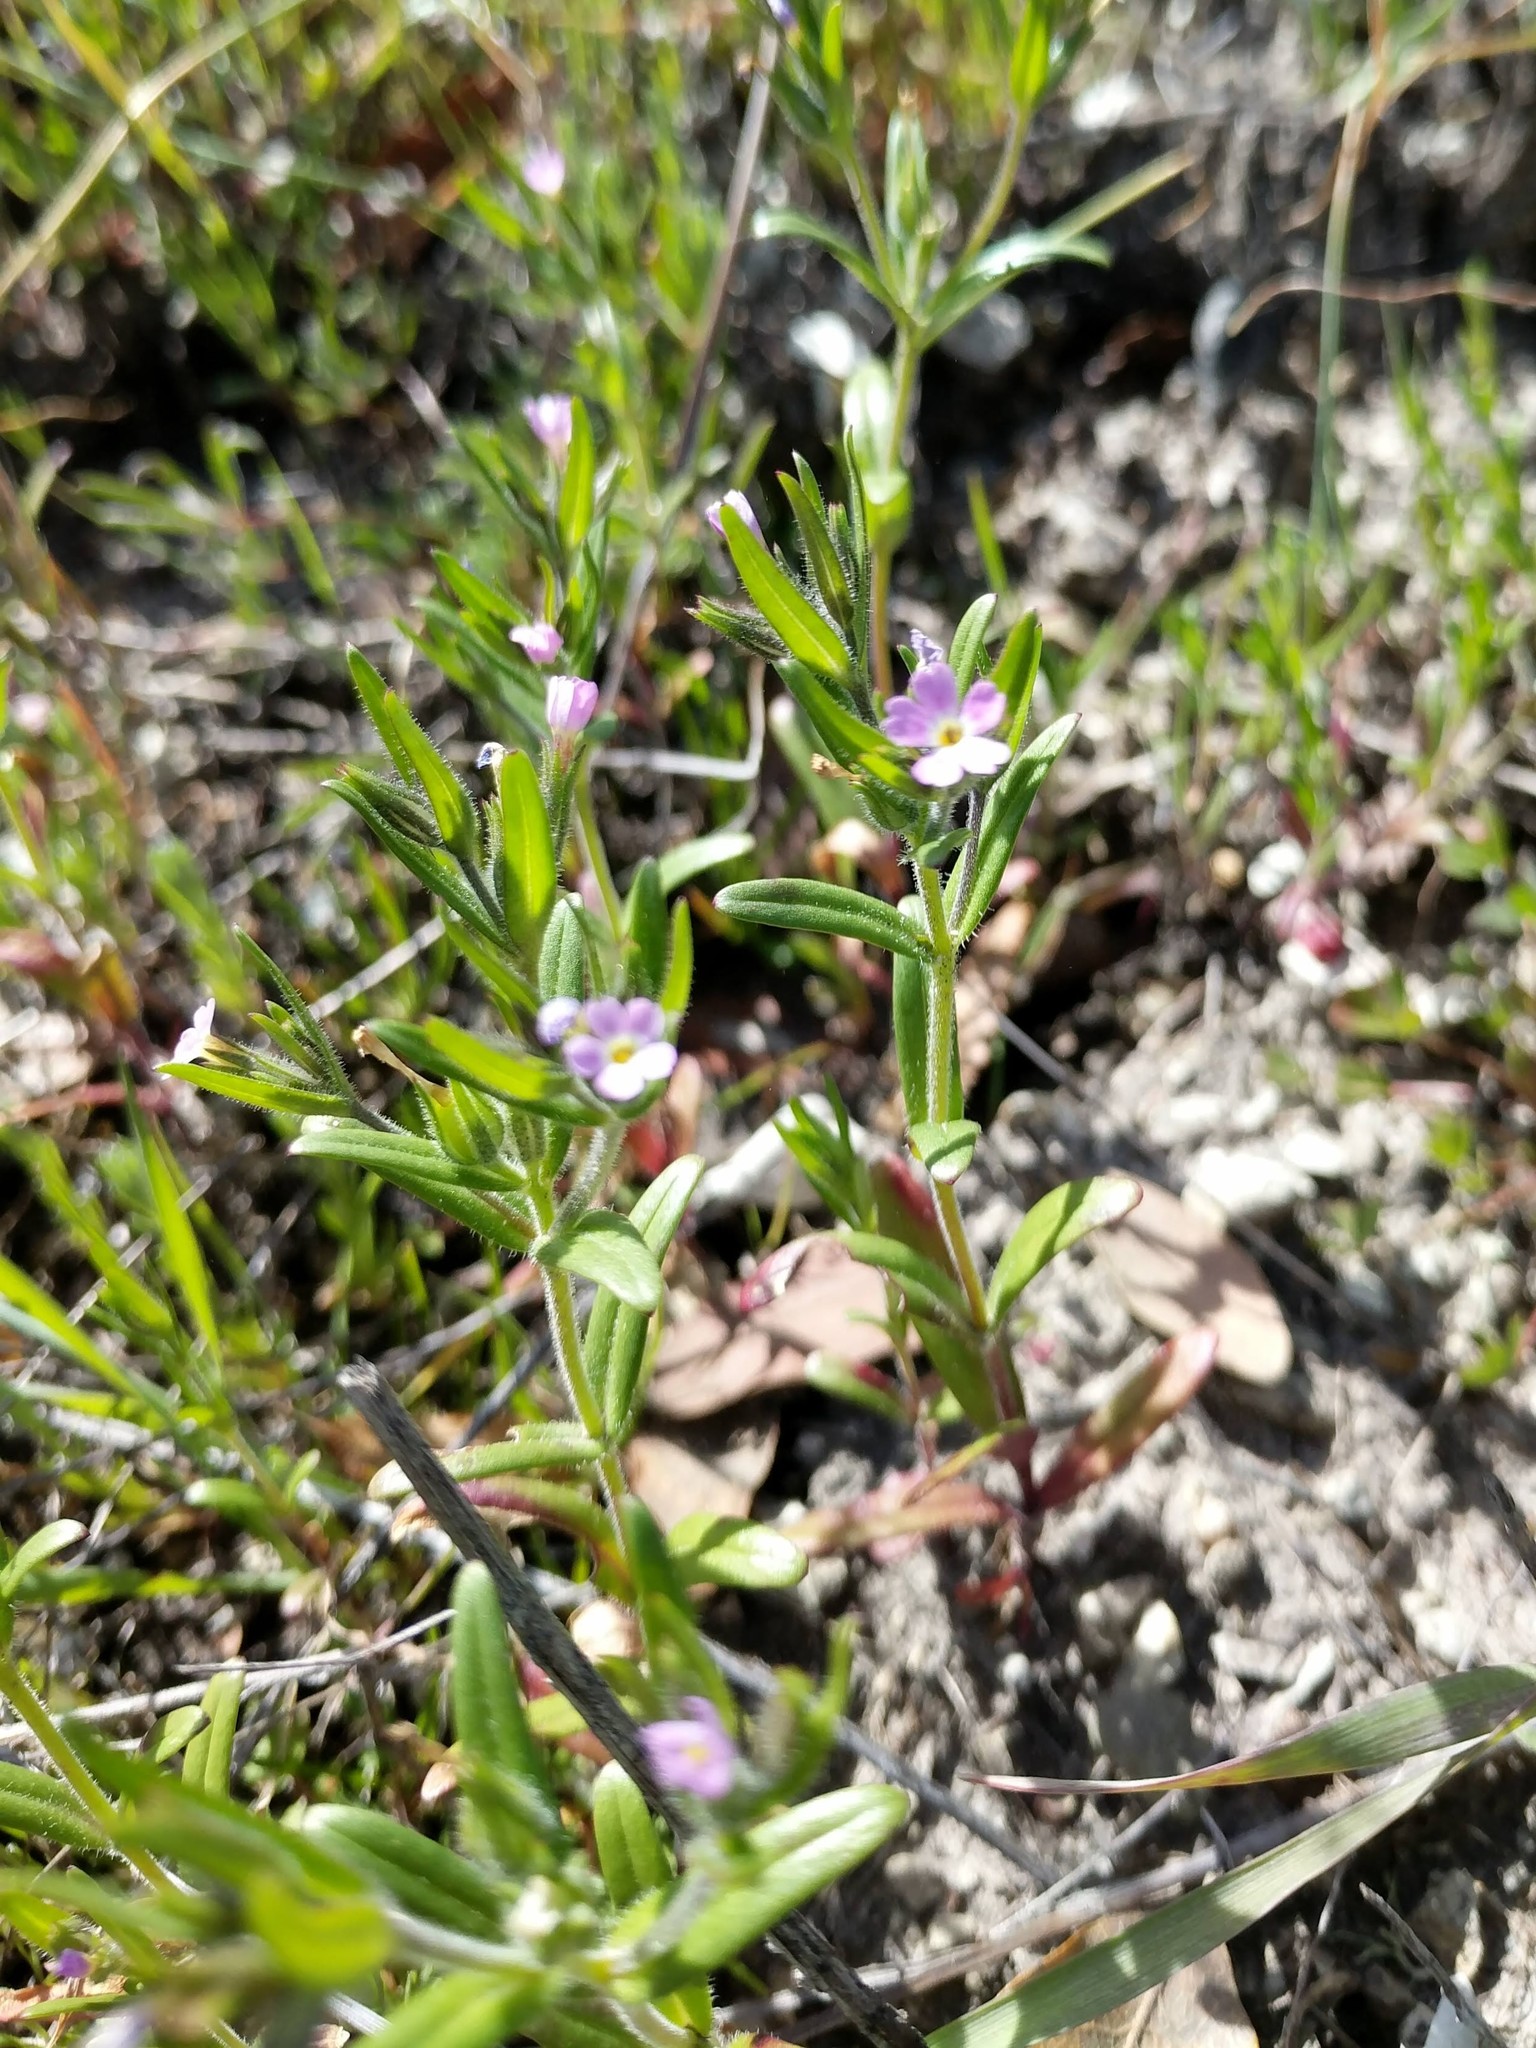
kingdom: Plantae
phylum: Tracheophyta
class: Magnoliopsida
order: Ericales
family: Polemoniaceae
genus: Phlox
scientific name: Phlox gracilis
